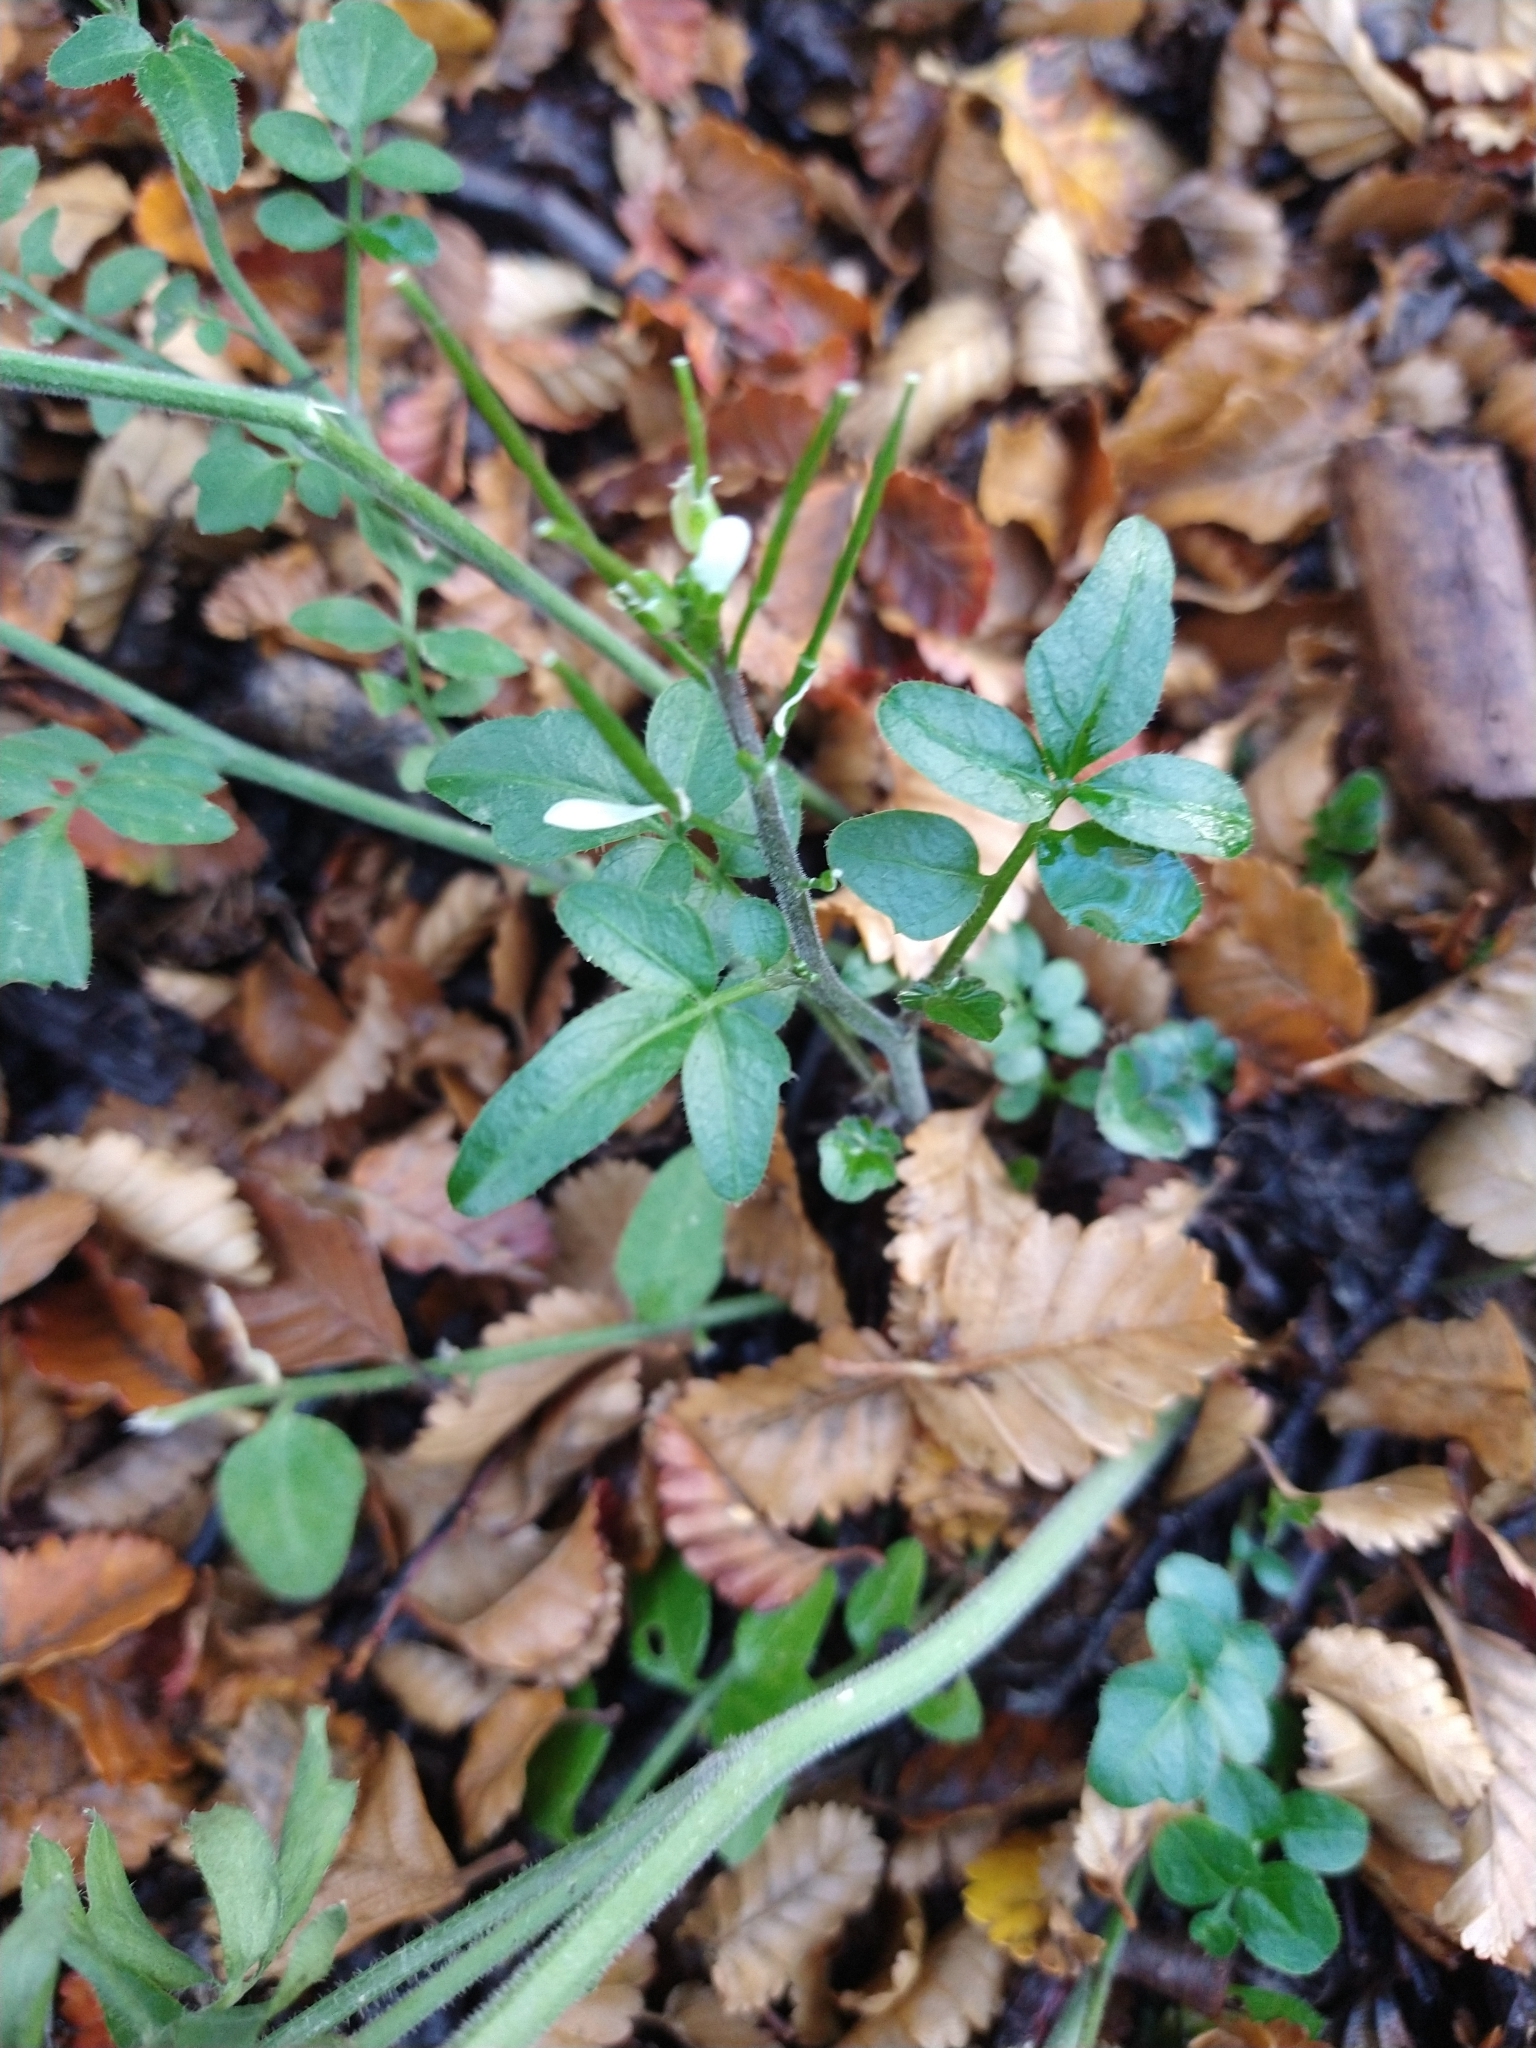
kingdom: Plantae
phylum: Tracheophyta
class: Magnoliopsida
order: Brassicales
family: Brassicaceae
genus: Cardamine
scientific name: Cardamine glacialis
